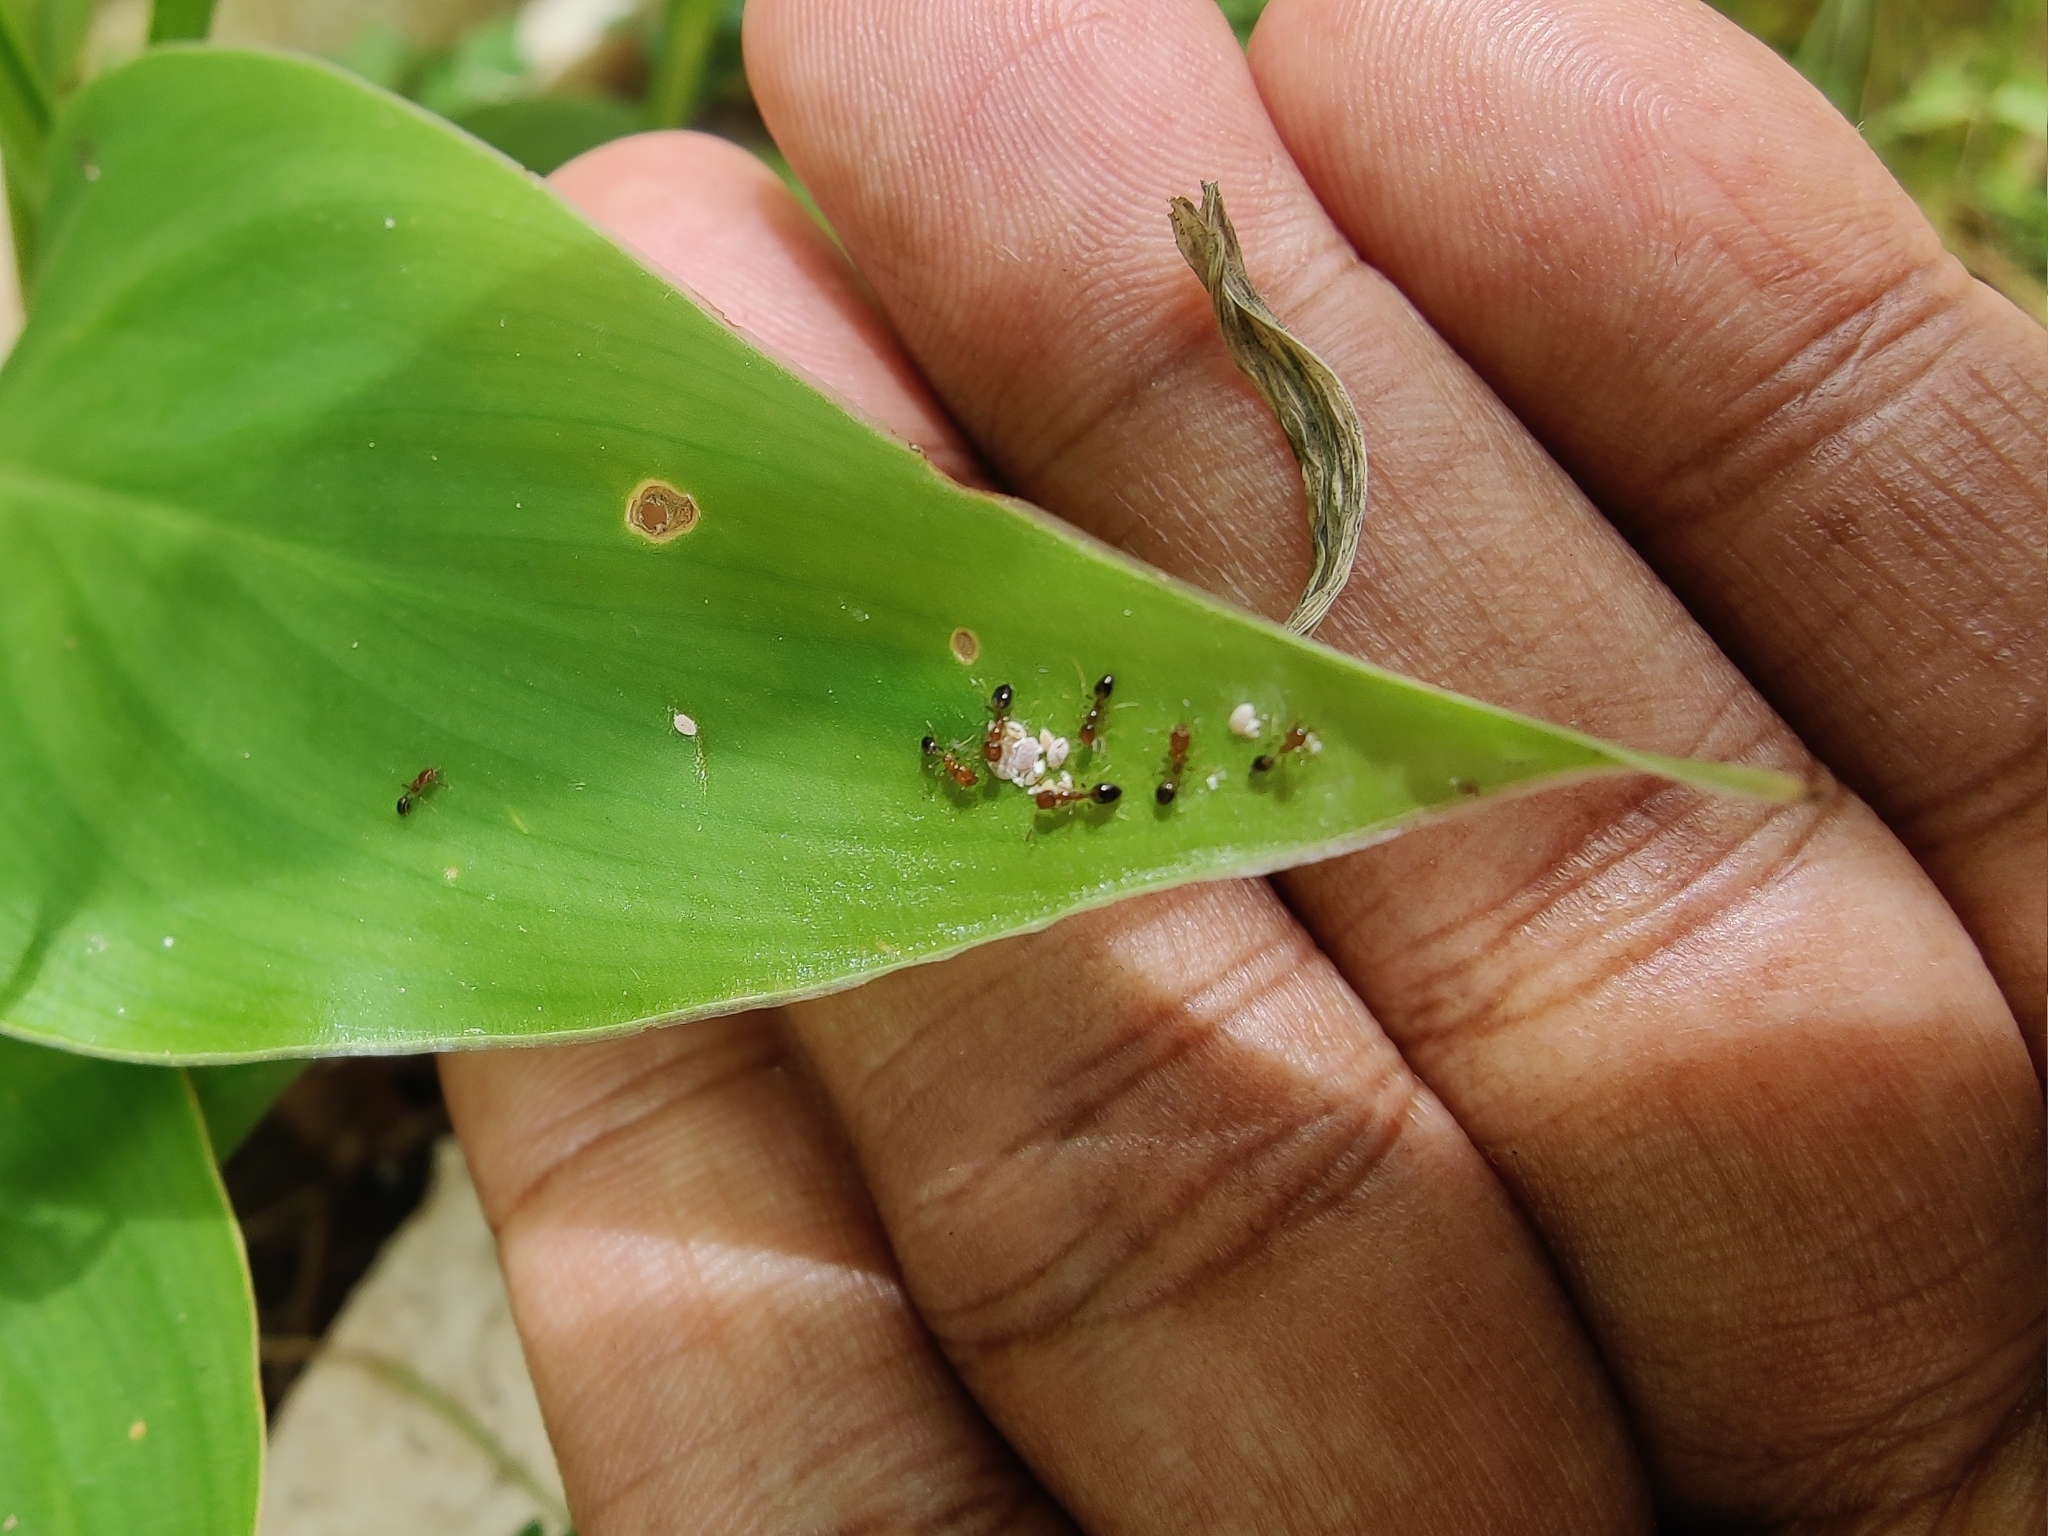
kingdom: Animalia
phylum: Arthropoda
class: Insecta
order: Hymenoptera
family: Formicidae
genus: Monomorium
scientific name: Monomorium destructor
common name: Destructive trailing ant
